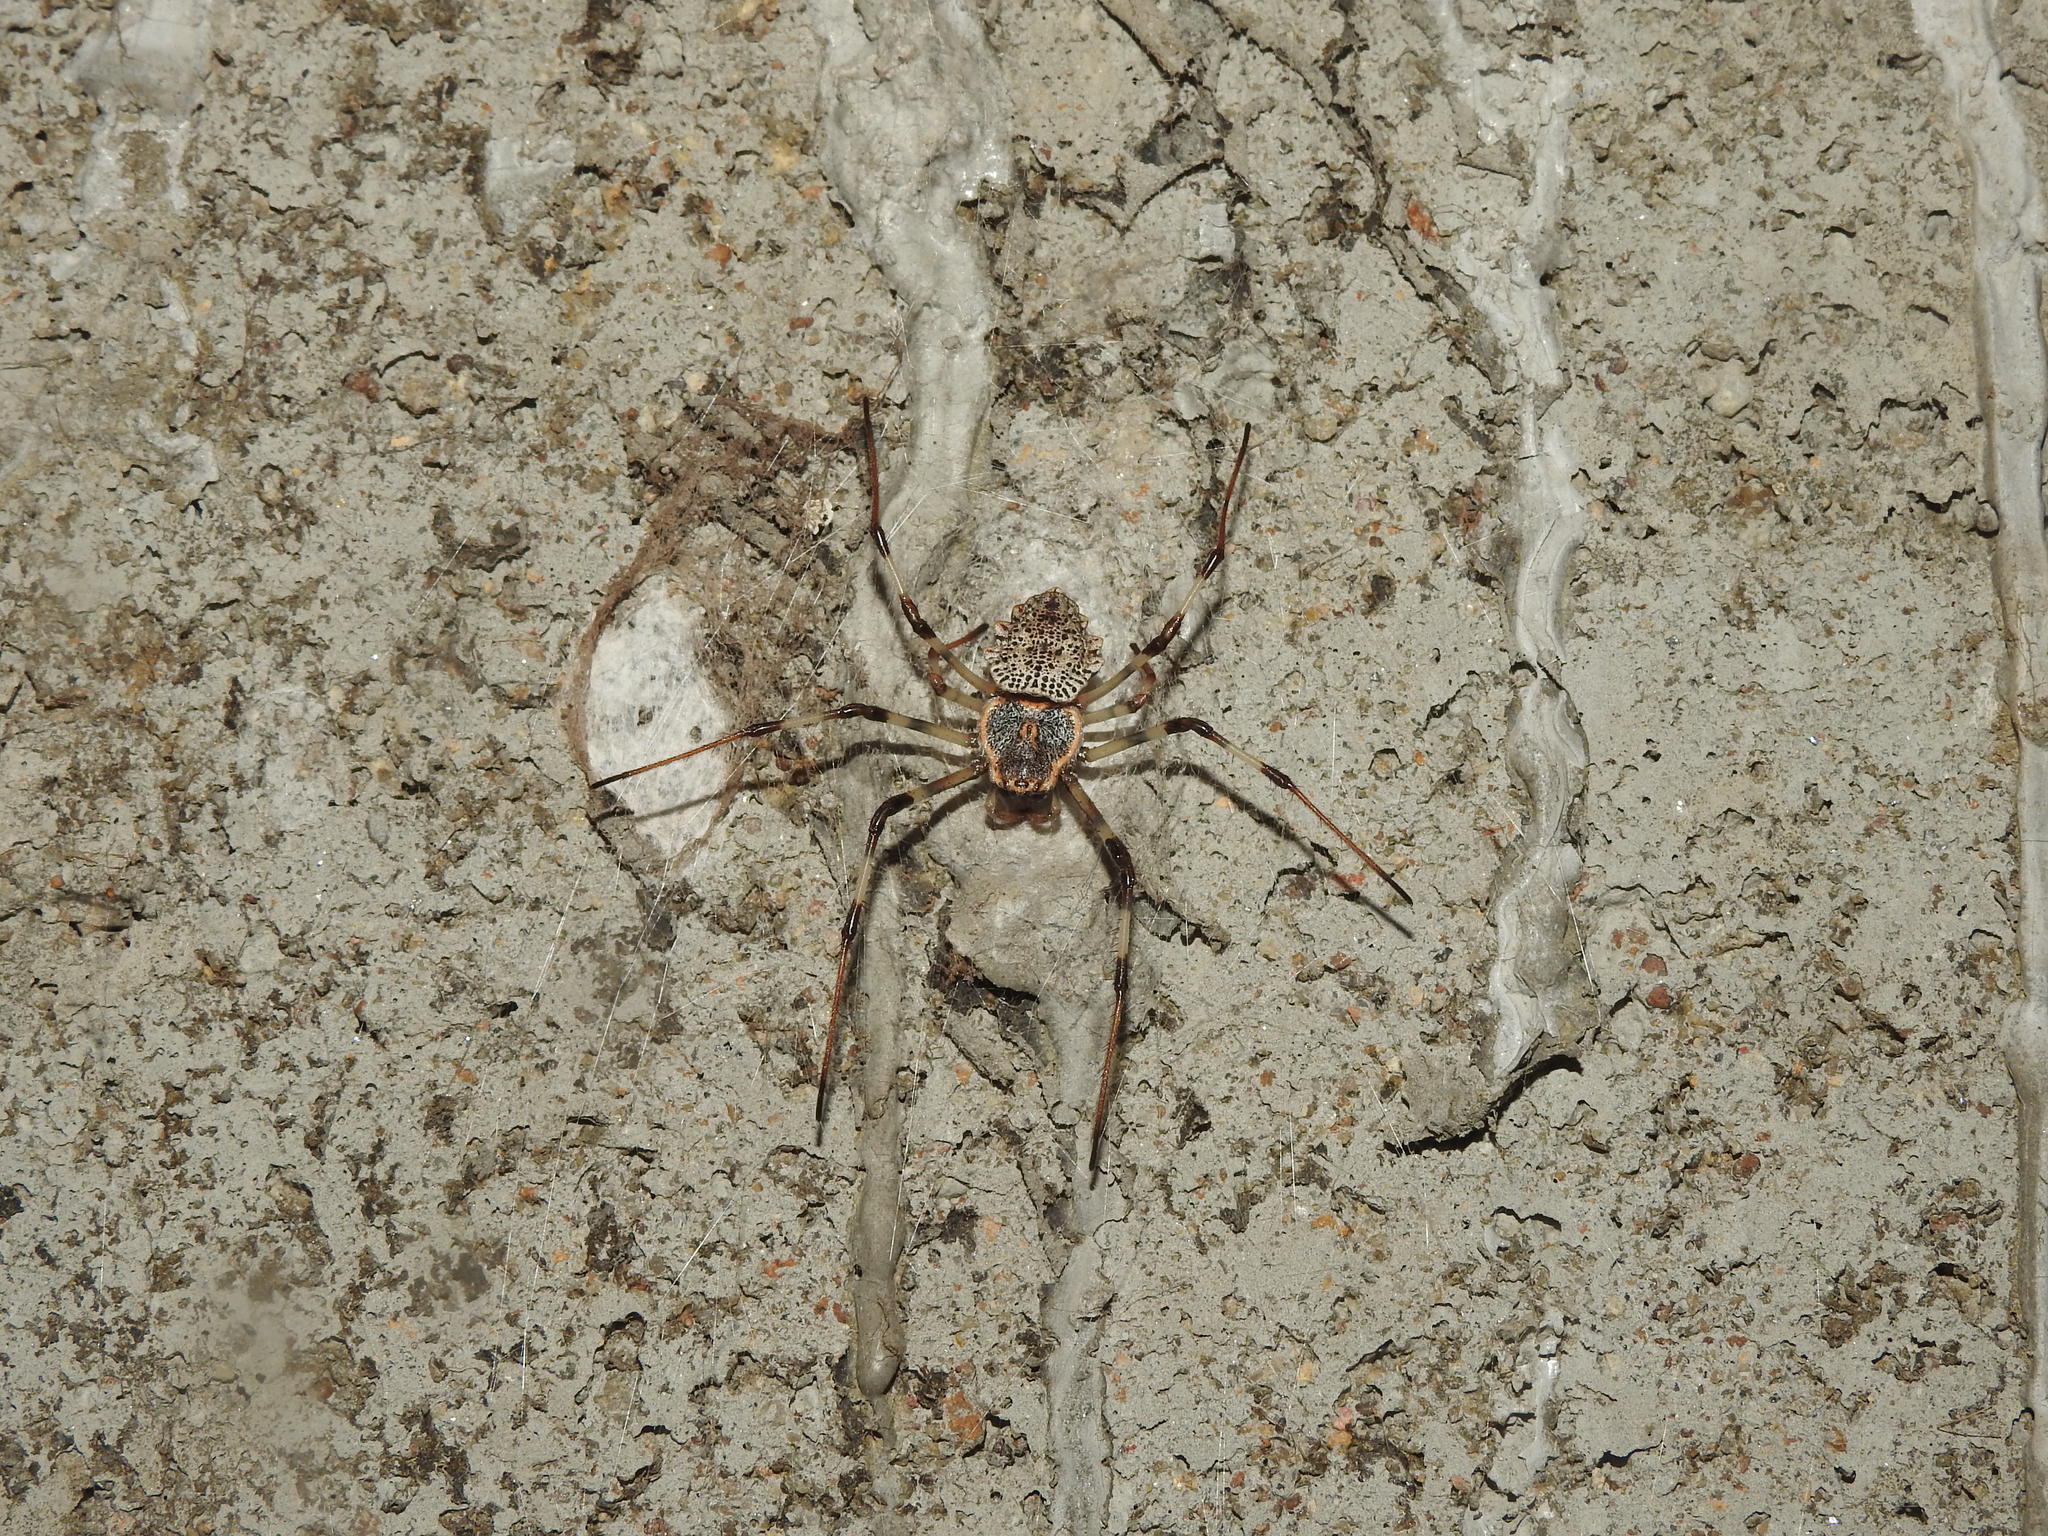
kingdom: Animalia
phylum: Arthropoda
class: Arachnida
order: Araneae
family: Araneidae
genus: Herennia
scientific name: Herennia multipuncta
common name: Spotted coin spider
